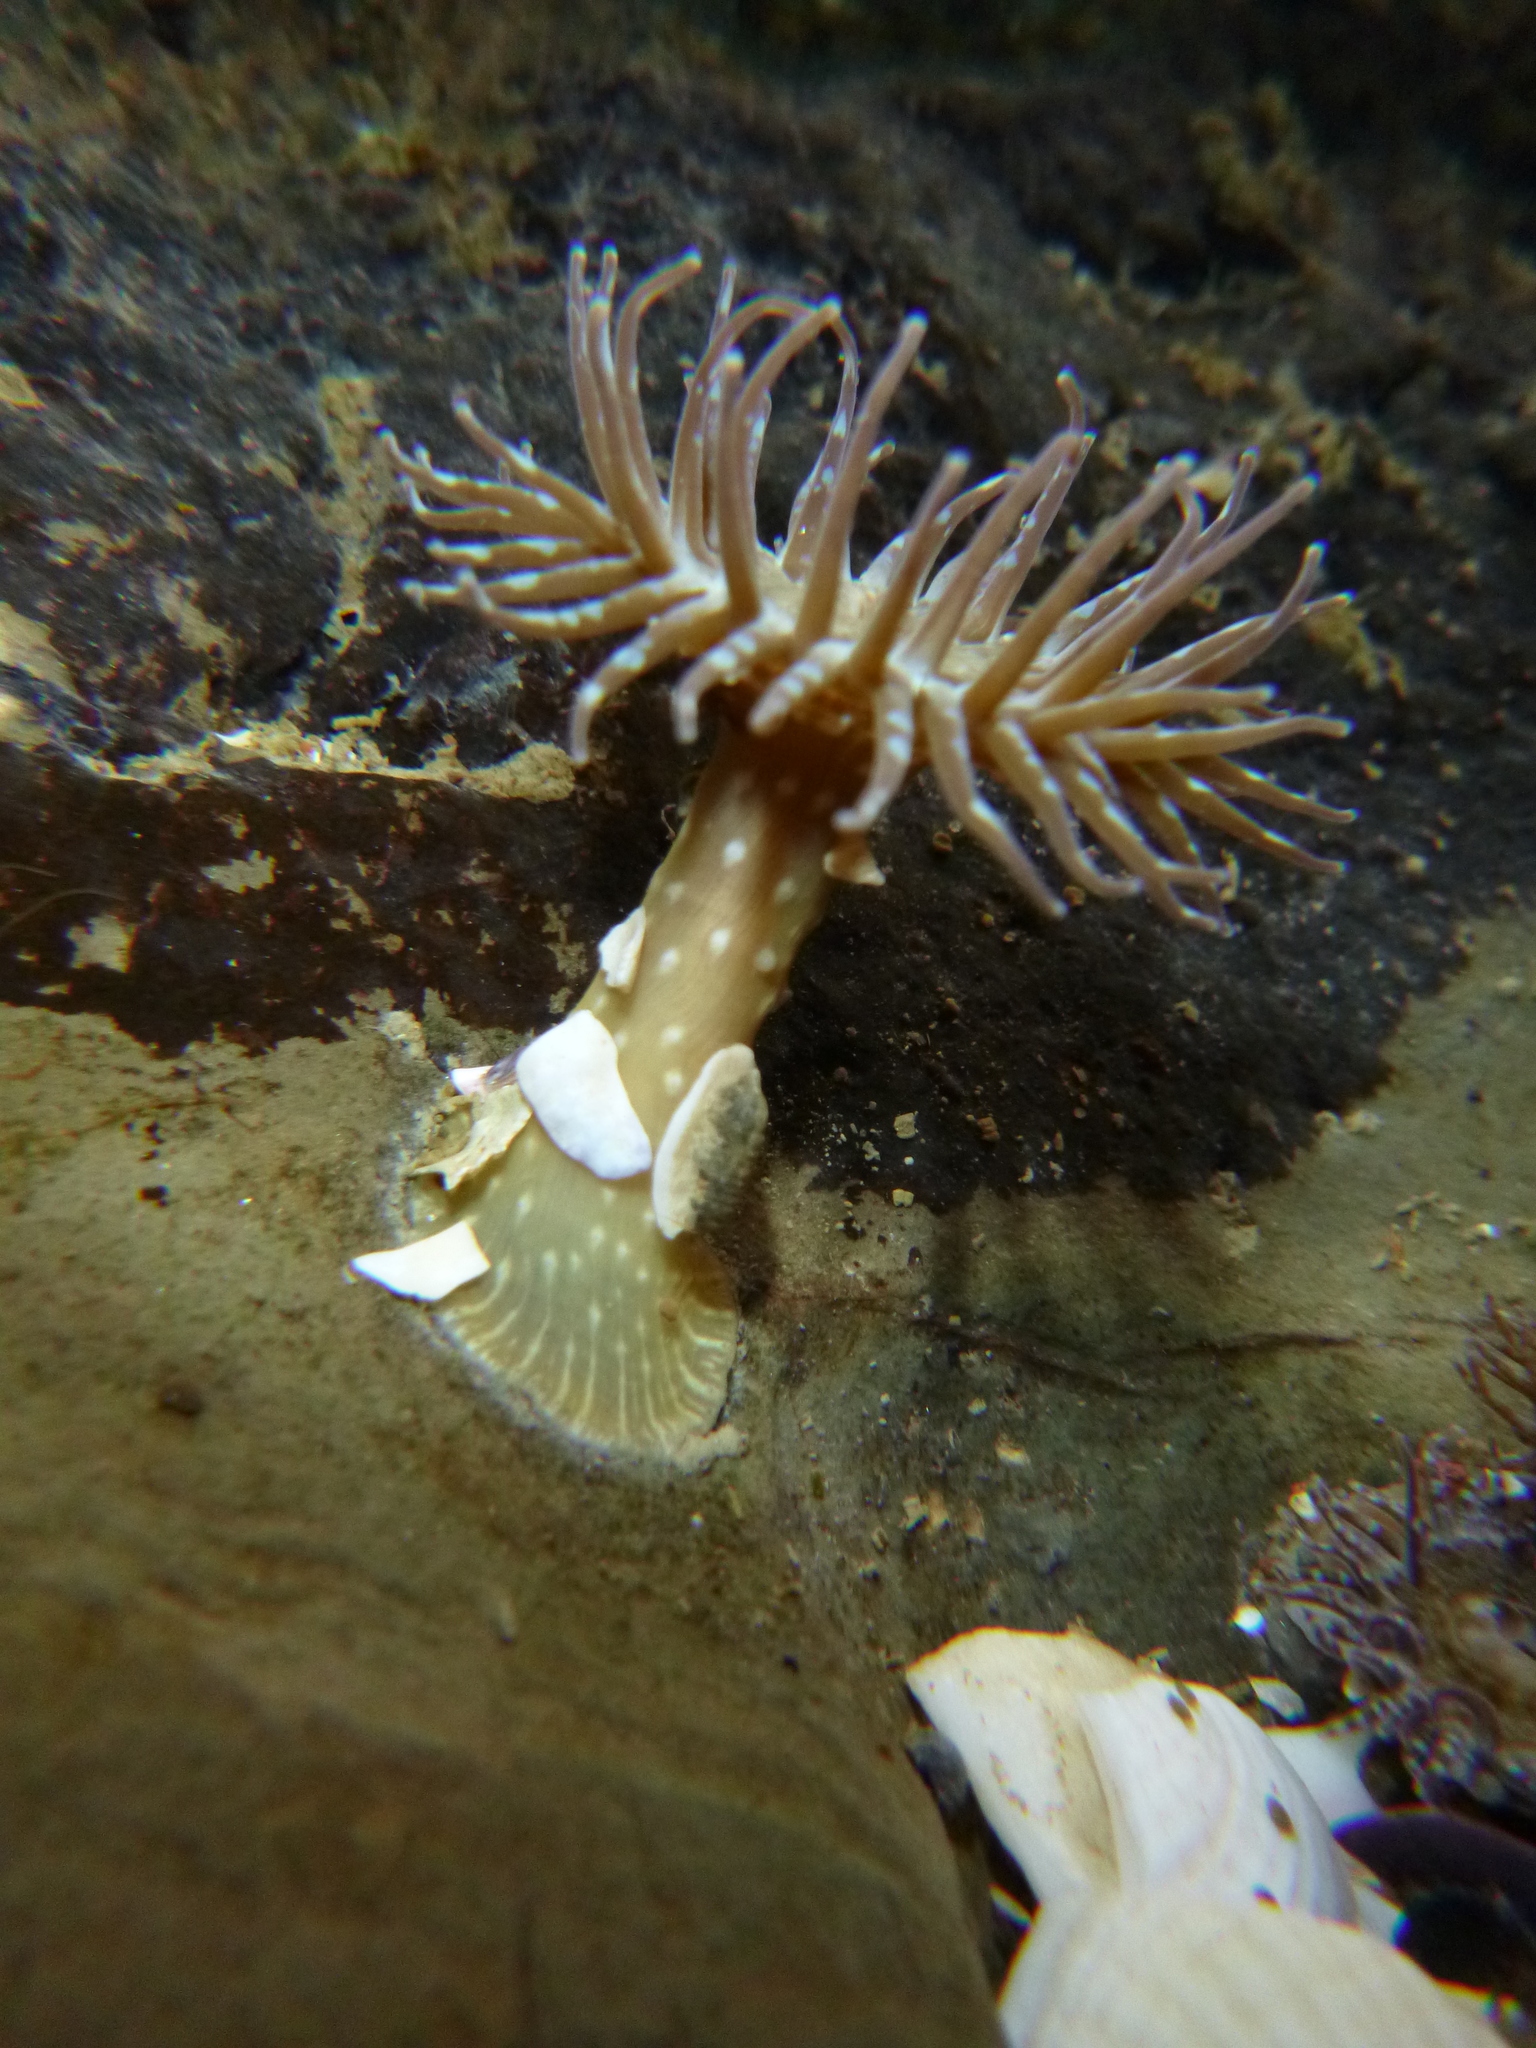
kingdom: Animalia
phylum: Cnidaria
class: Anthozoa
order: Actiniaria
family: Actiniidae
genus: Anthopleura
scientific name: Anthopleura hermaphroditica
